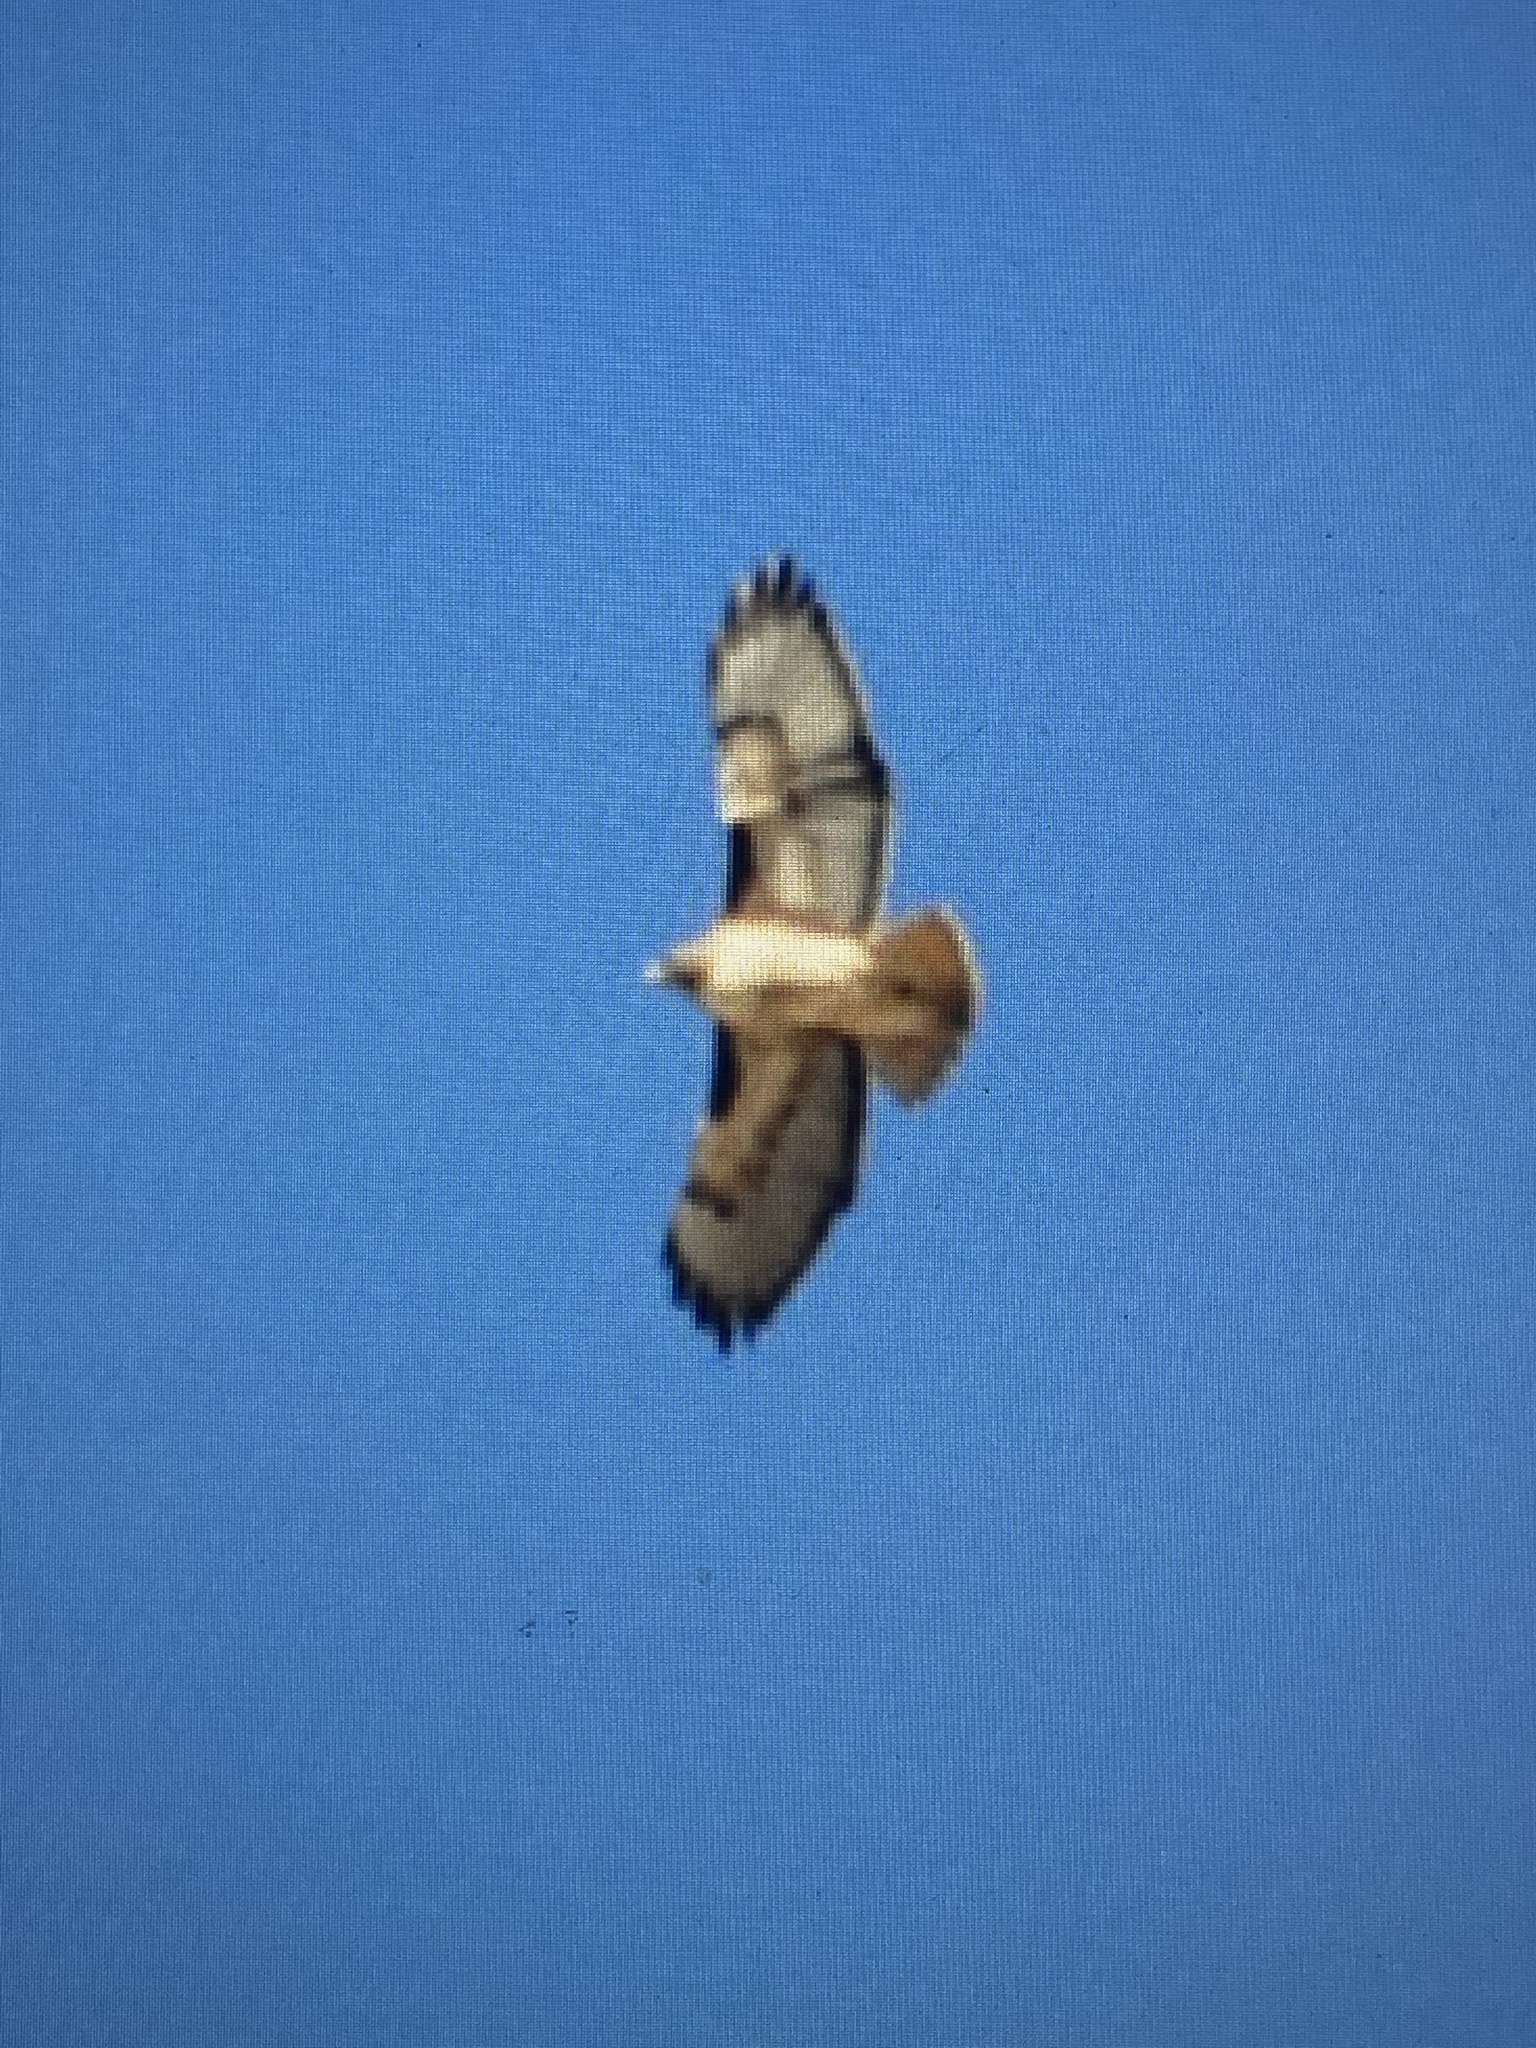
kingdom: Animalia
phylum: Chordata
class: Aves
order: Accipitriformes
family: Accipitridae
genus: Buteo
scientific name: Buteo jamaicensis
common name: Red-tailed hawk
